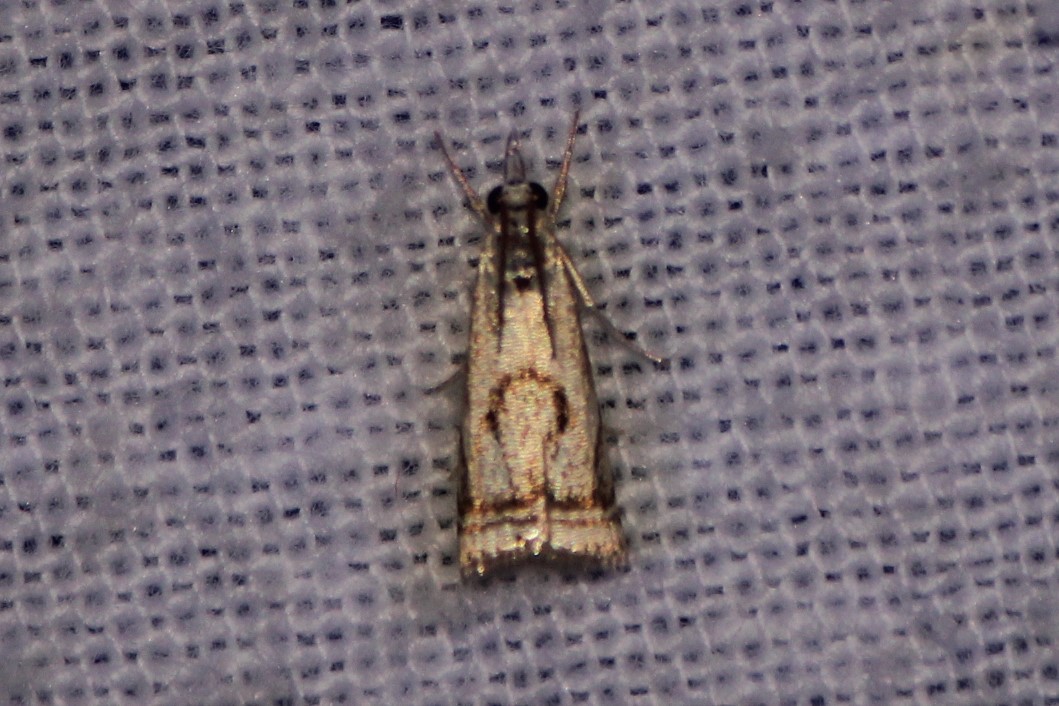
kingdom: Animalia
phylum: Arthropoda
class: Insecta
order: Lepidoptera
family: Crambidae
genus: Microcrambus
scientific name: Microcrambus elegans
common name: Elegant grass-veneer
